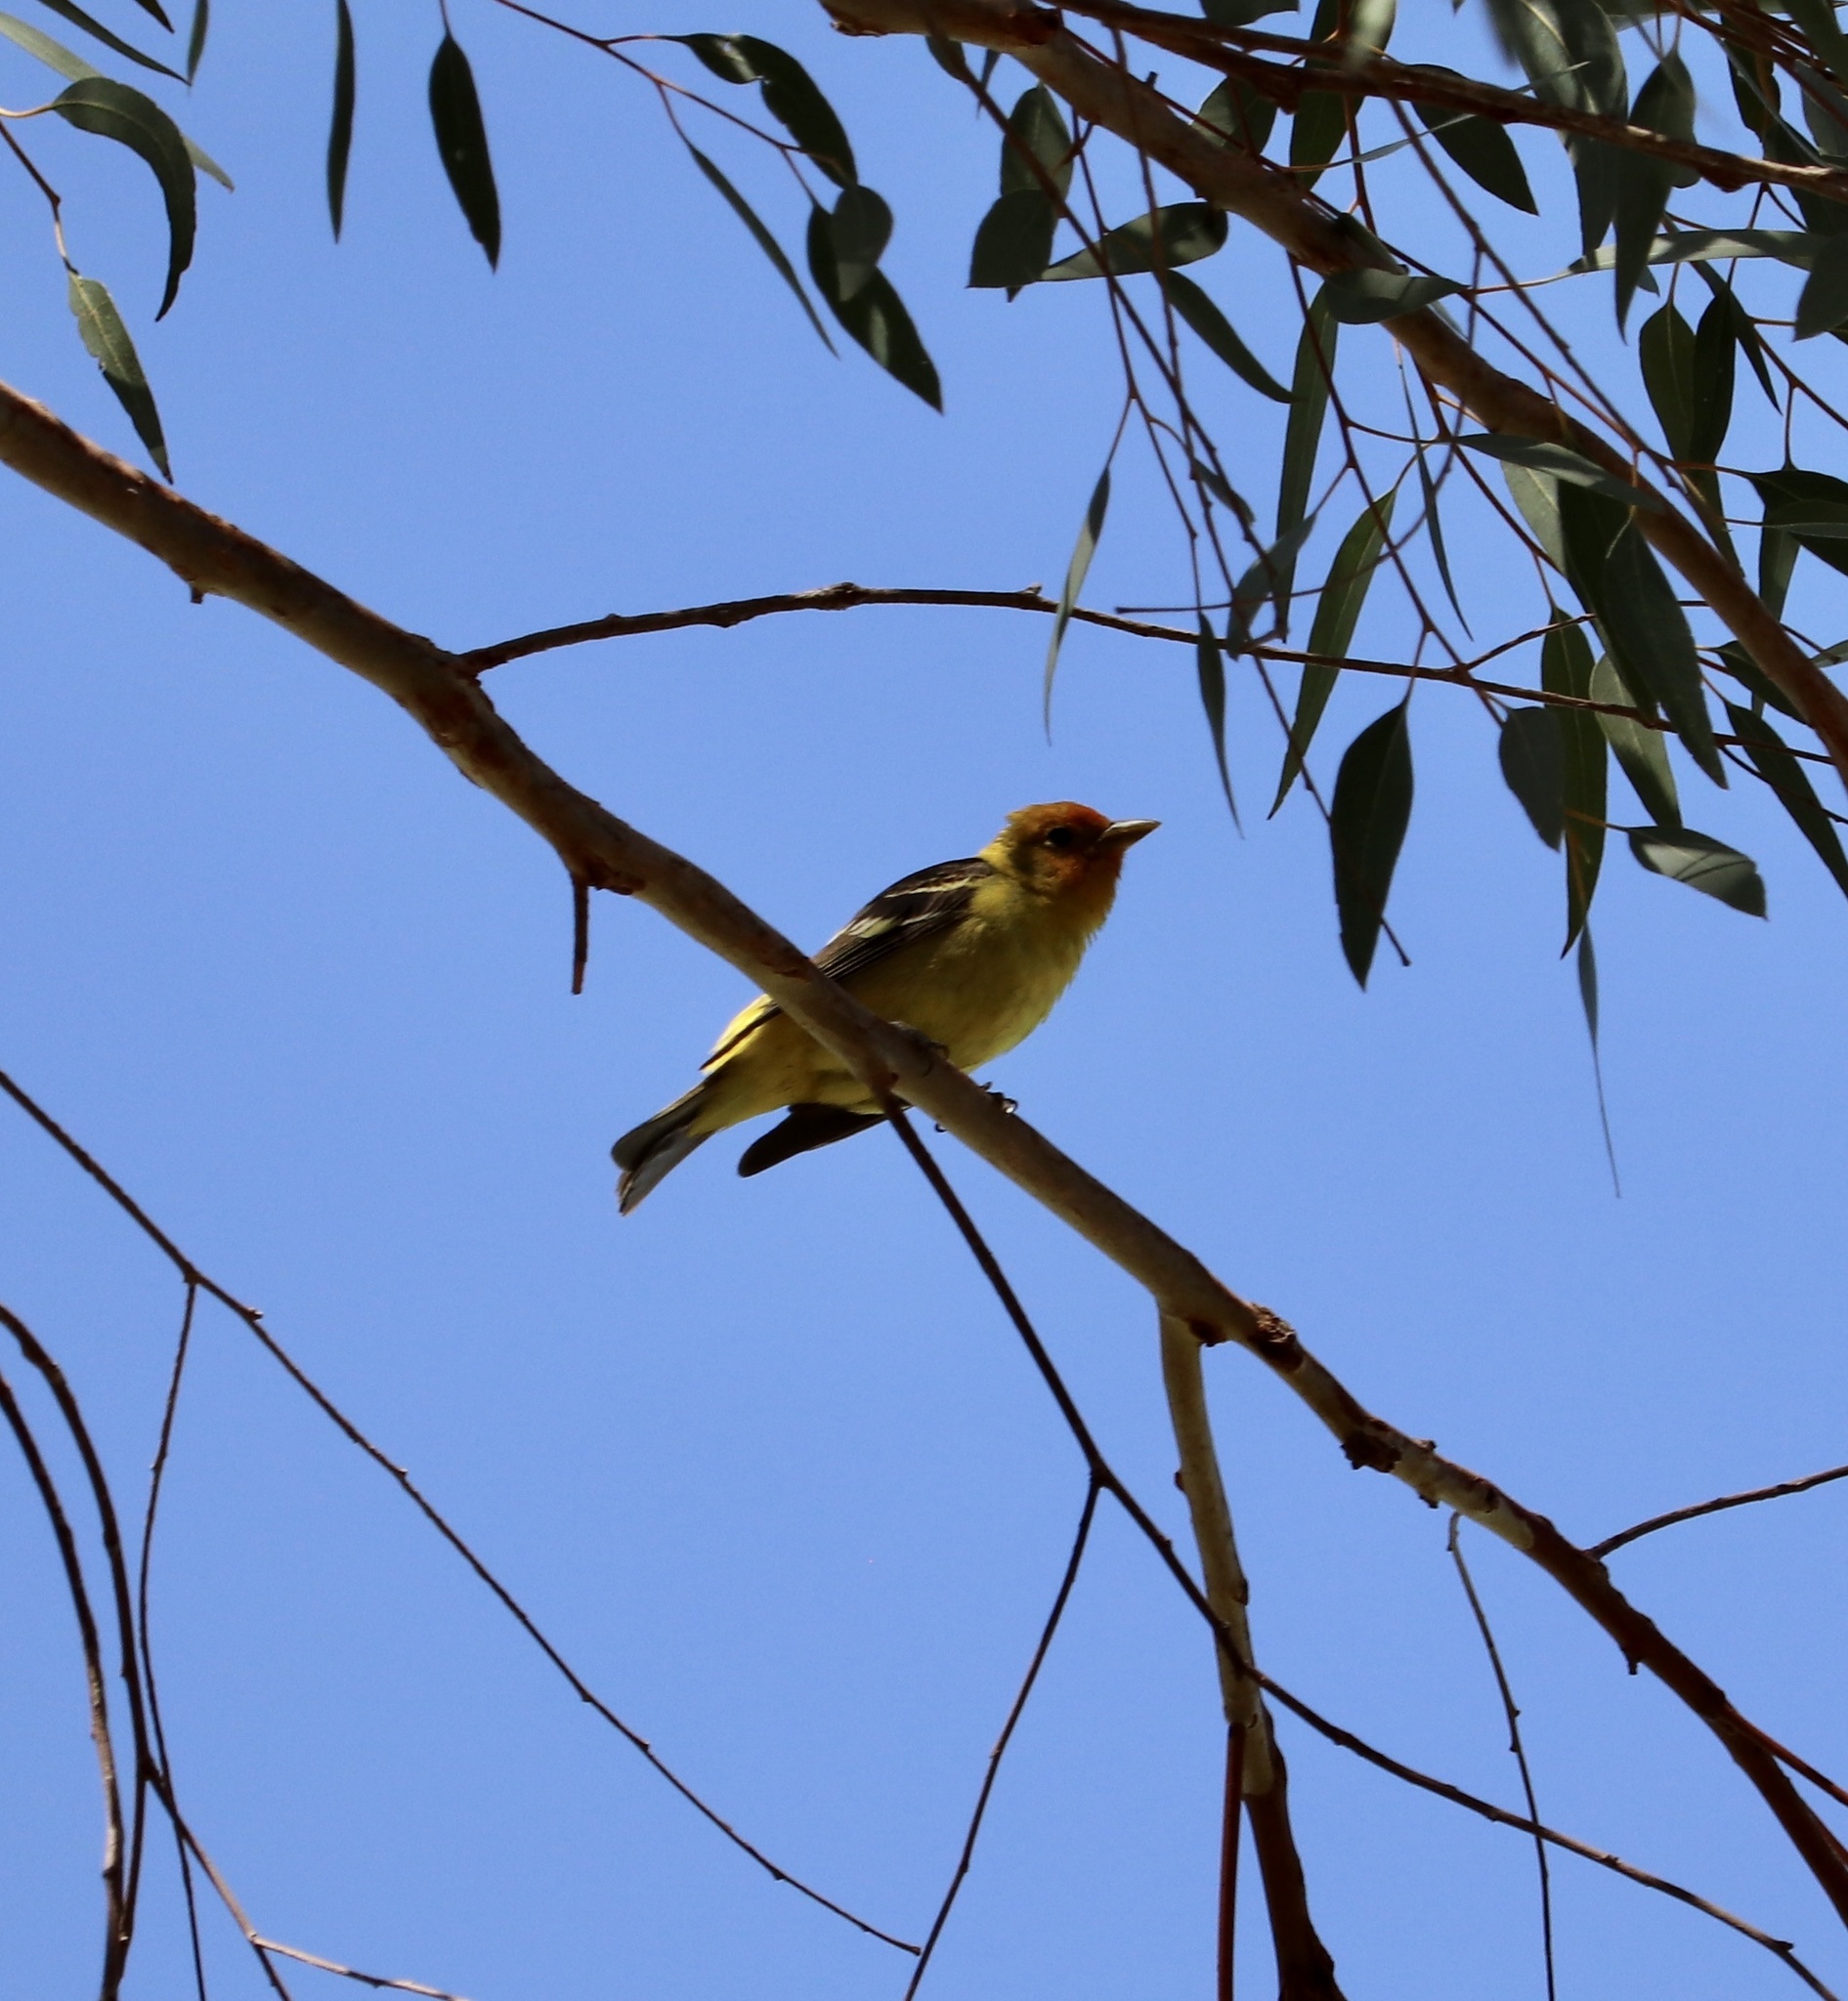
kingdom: Animalia
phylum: Chordata
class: Aves
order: Passeriformes
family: Cardinalidae
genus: Piranga
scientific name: Piranga ludoviciana
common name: Western tanager
